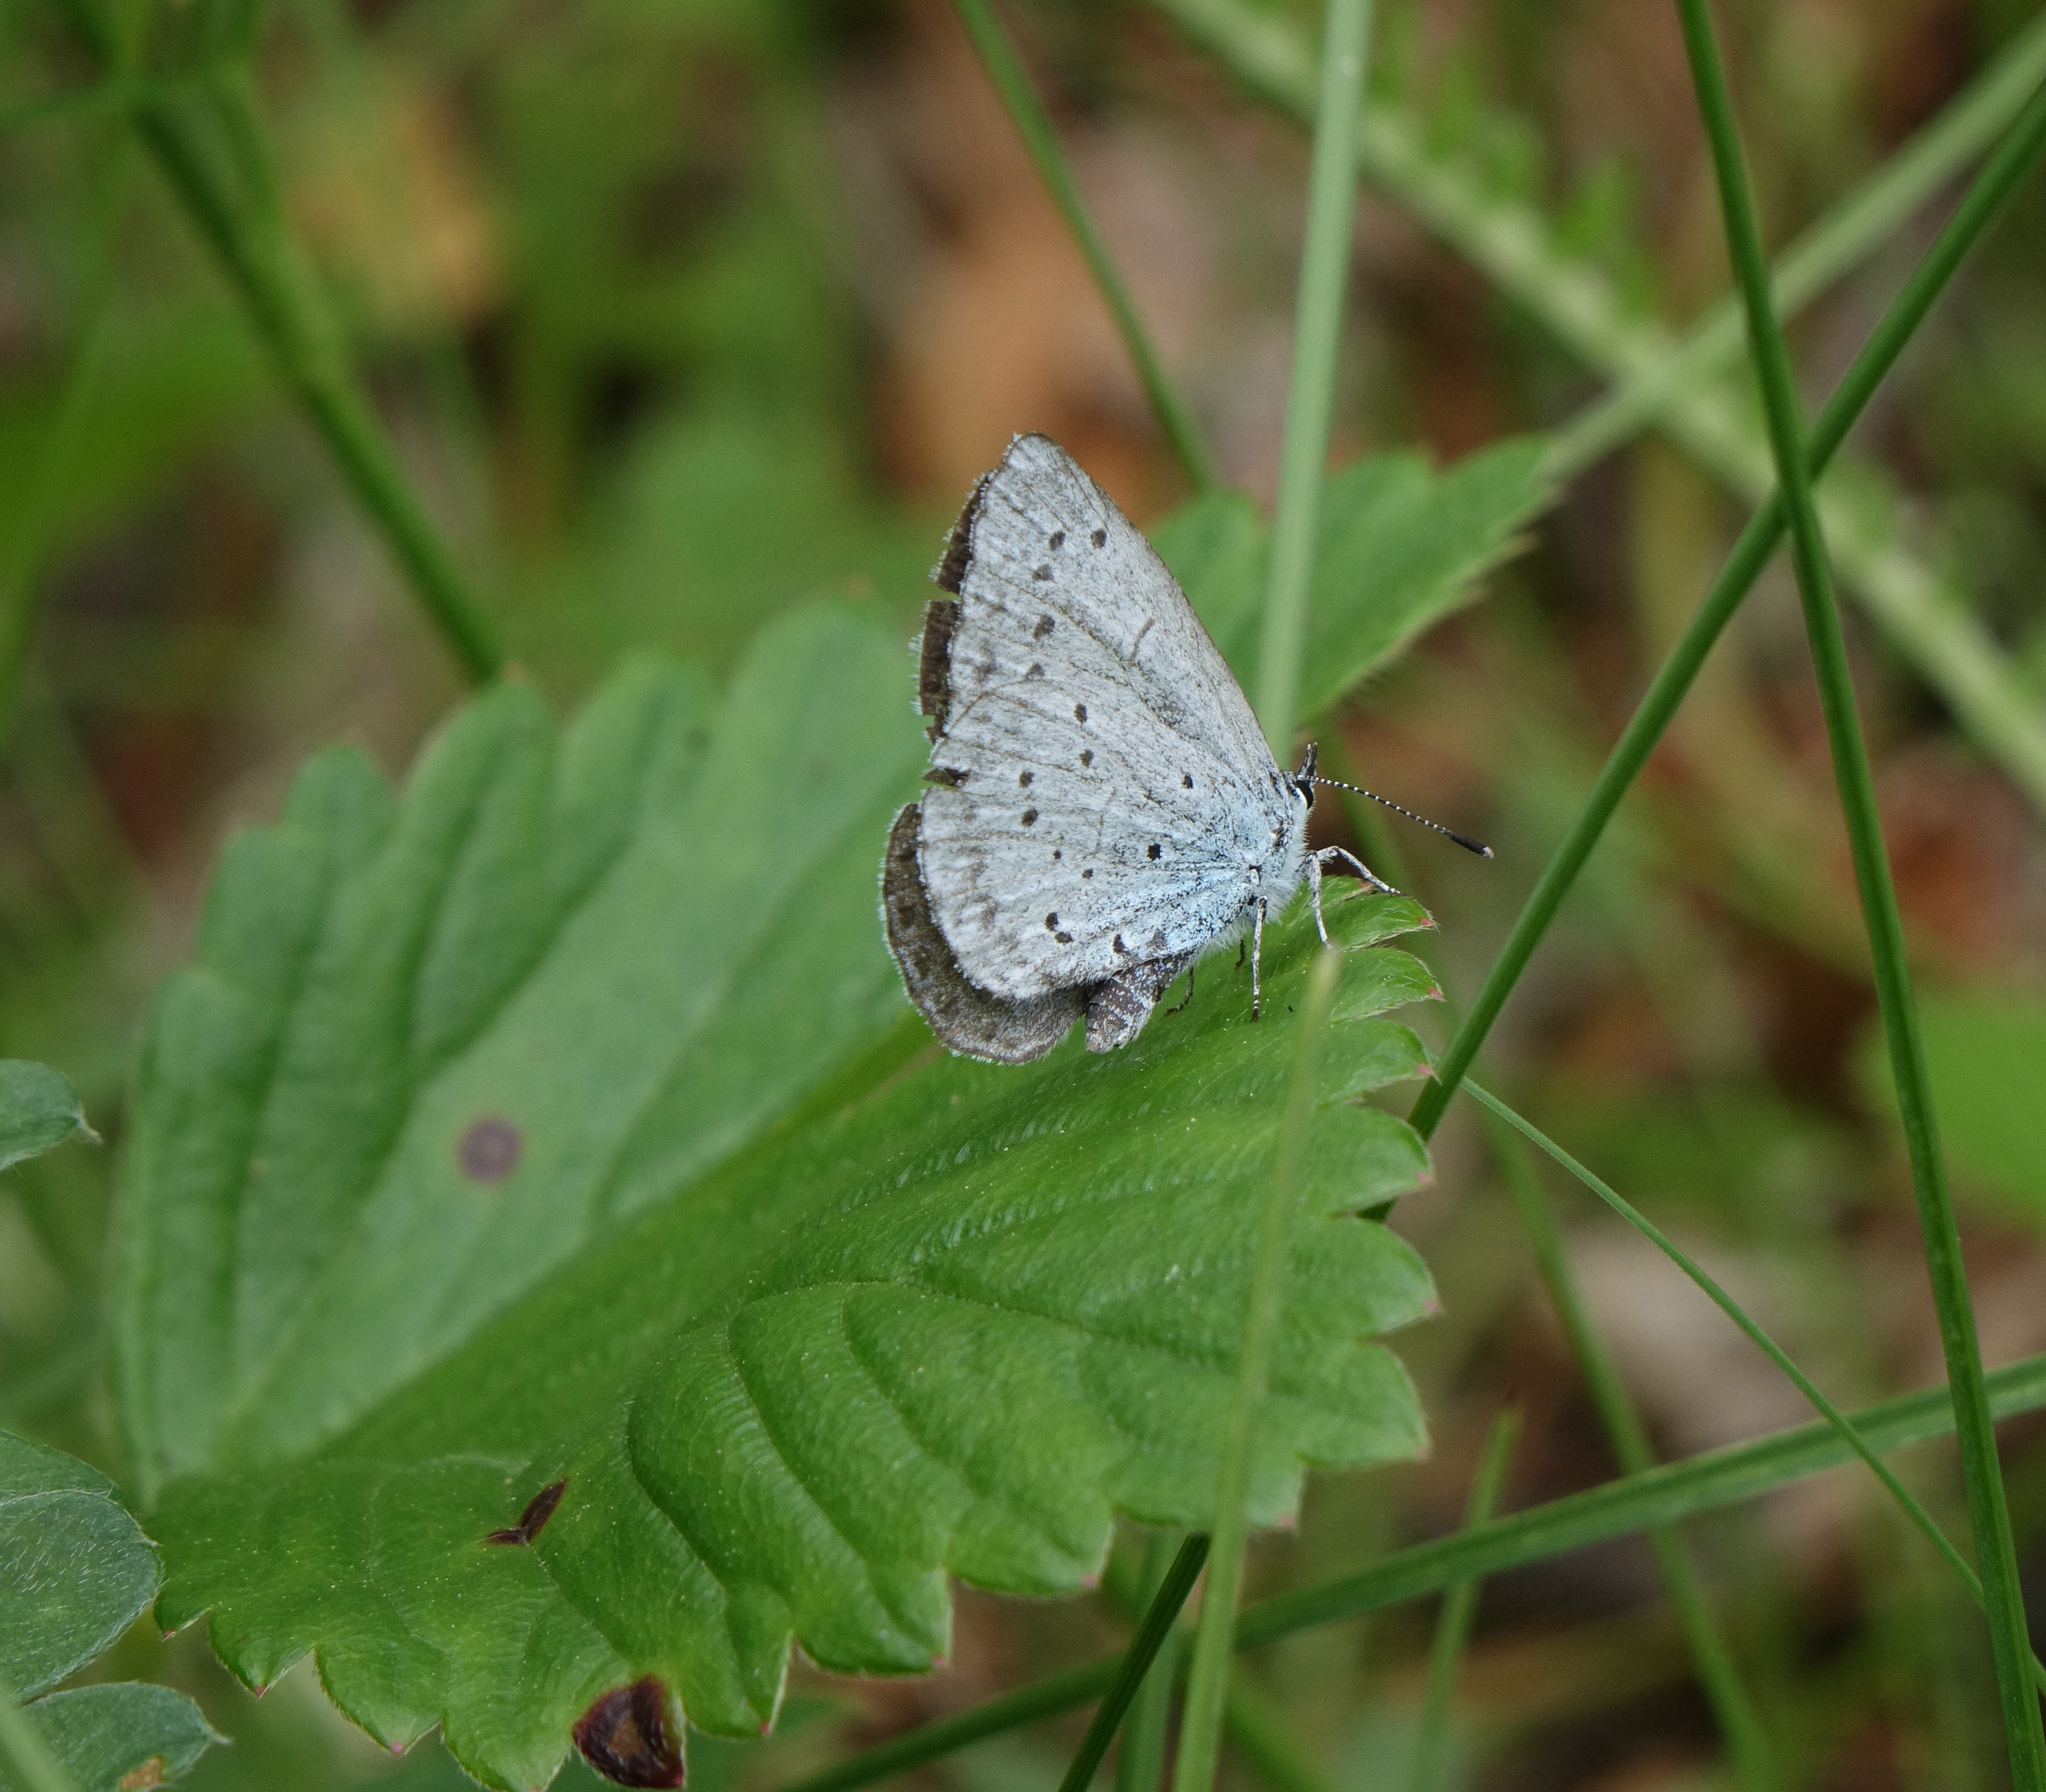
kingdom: Animalia
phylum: Arthropoda
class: Insecta
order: Lepidoptera
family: Lycaenidae
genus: Celastrina
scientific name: Celastrina argiolus
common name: Holly blue
